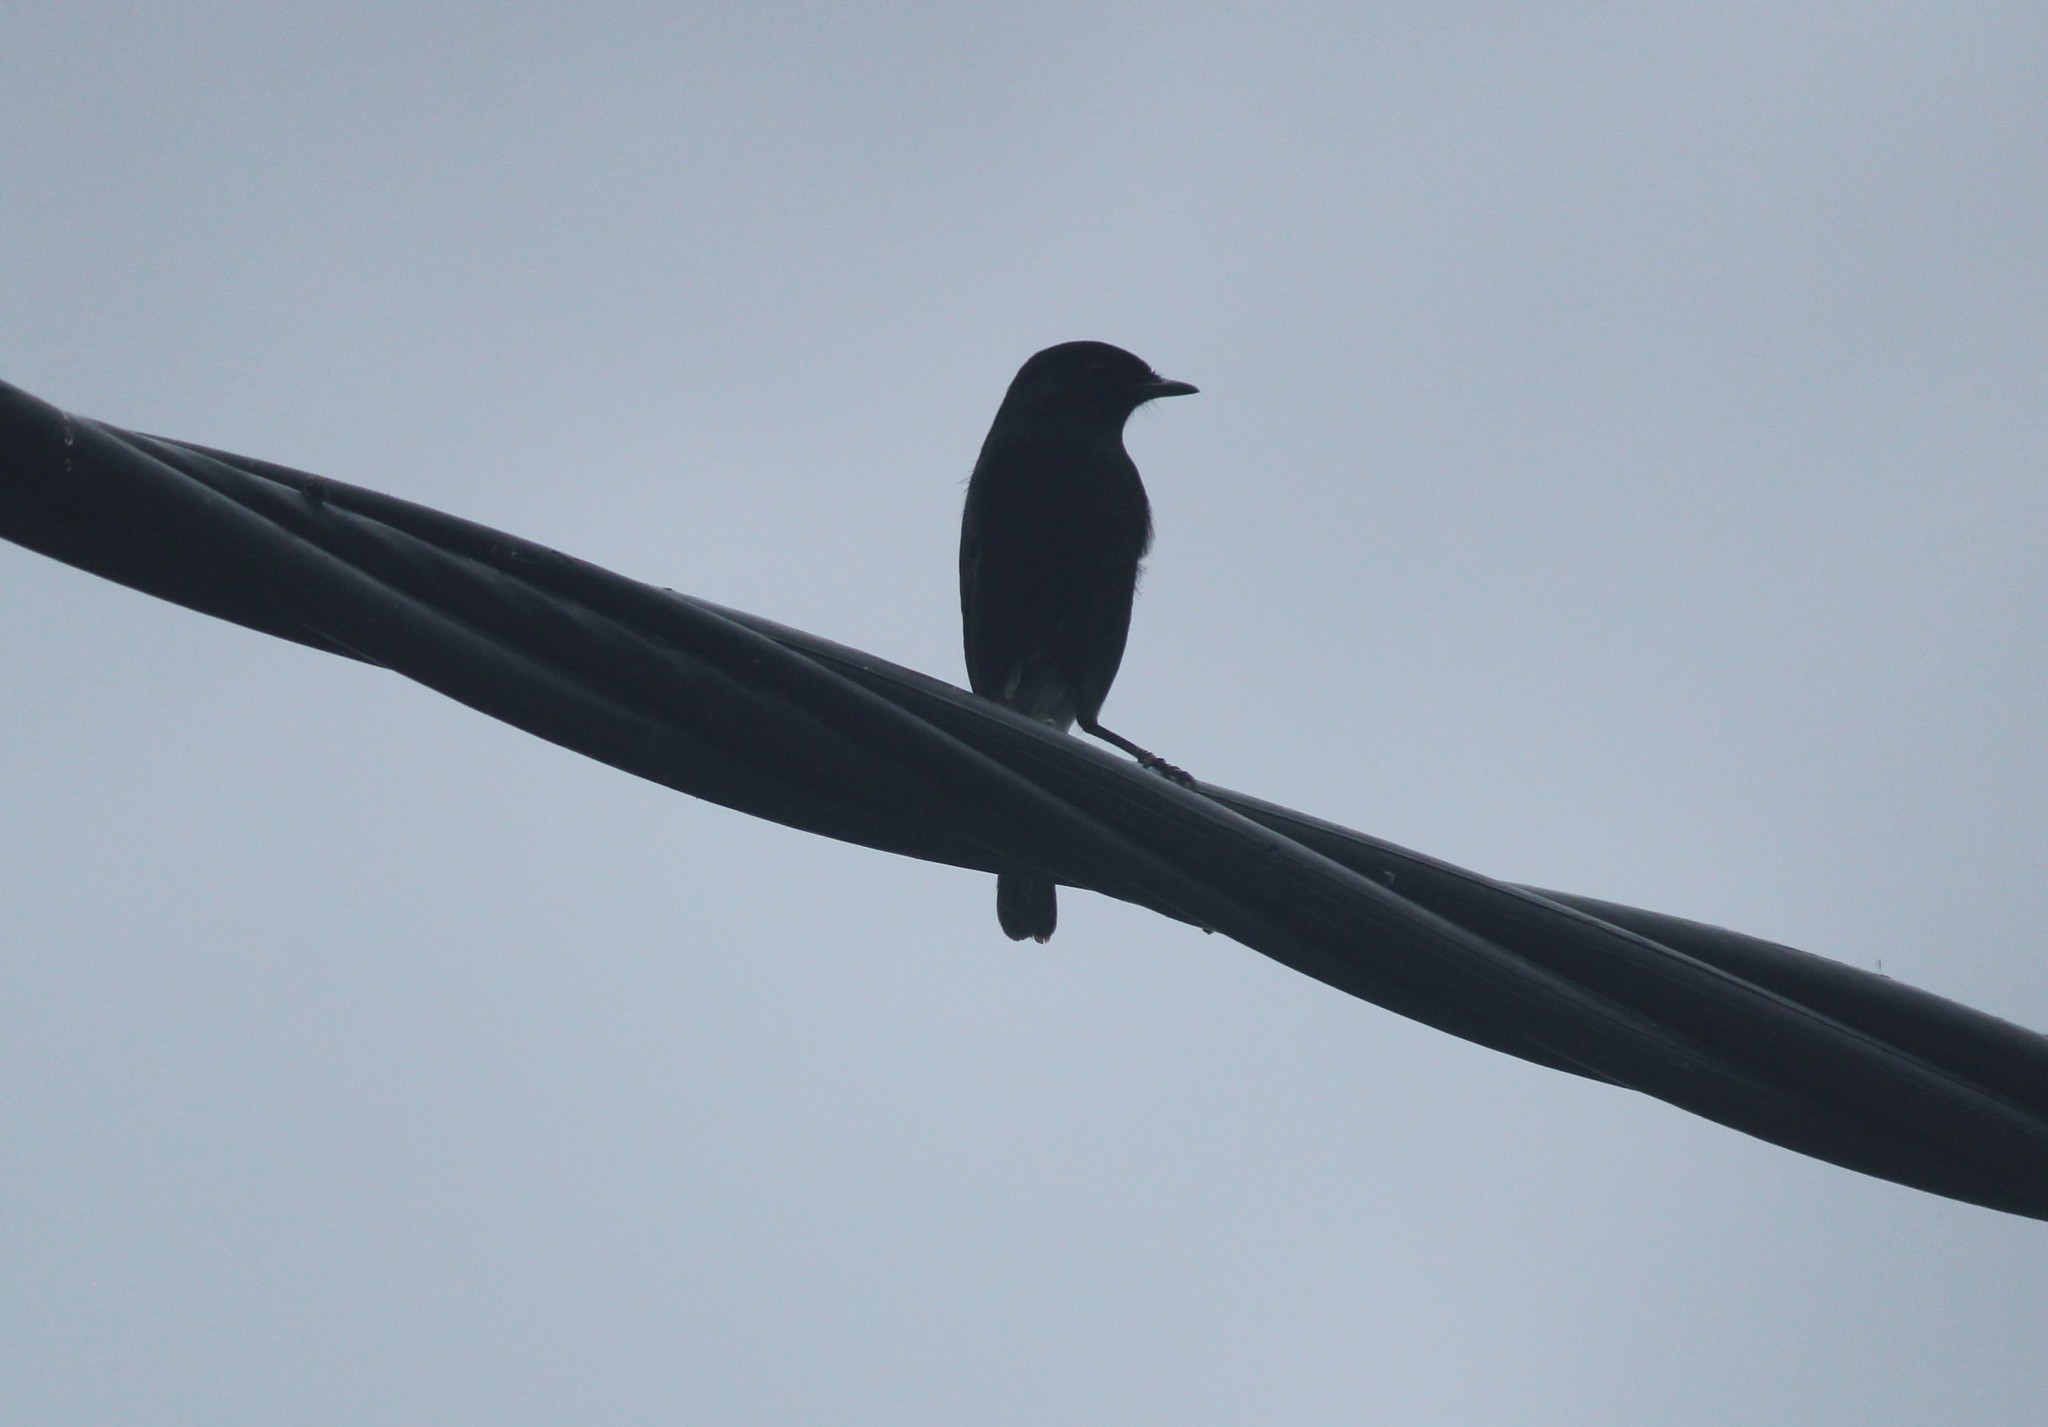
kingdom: Animalia
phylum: Chordata
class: Aves
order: Passeriformes
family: Muscicapidae
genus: Saxicola
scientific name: Saxicola caprata
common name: Pied bush chat
